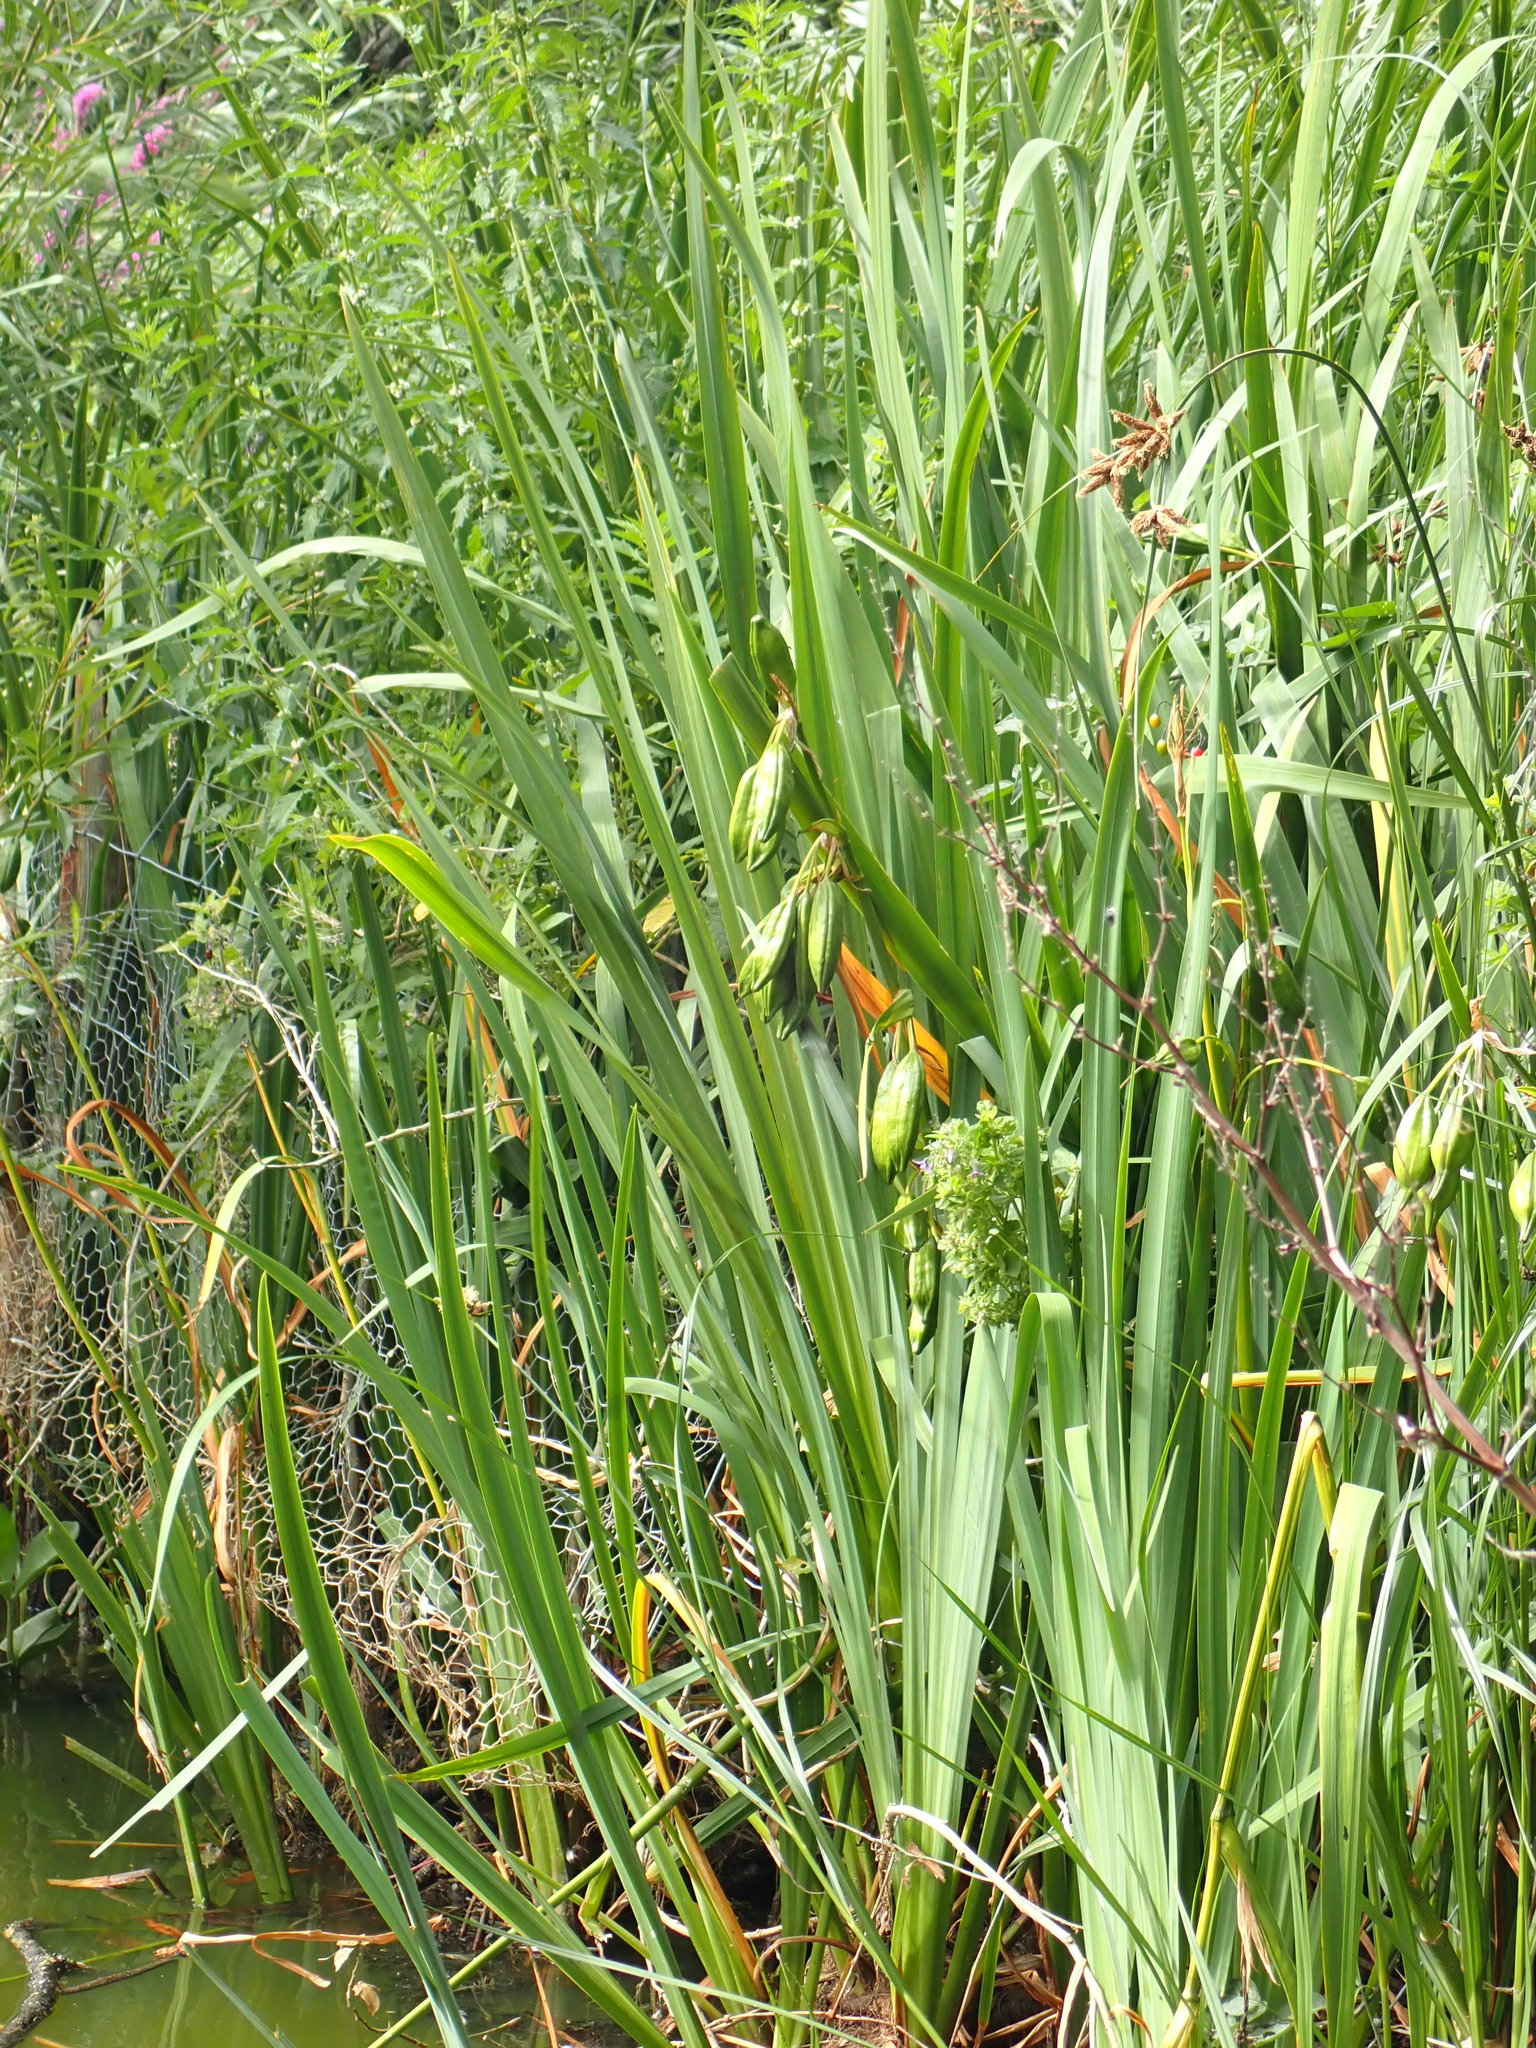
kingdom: Plantae
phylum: Tracheophyta
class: Liliopsida
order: Asparagales
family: Iridaceae
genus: Iris
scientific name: Iris pseudacorus
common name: Yellow flag
